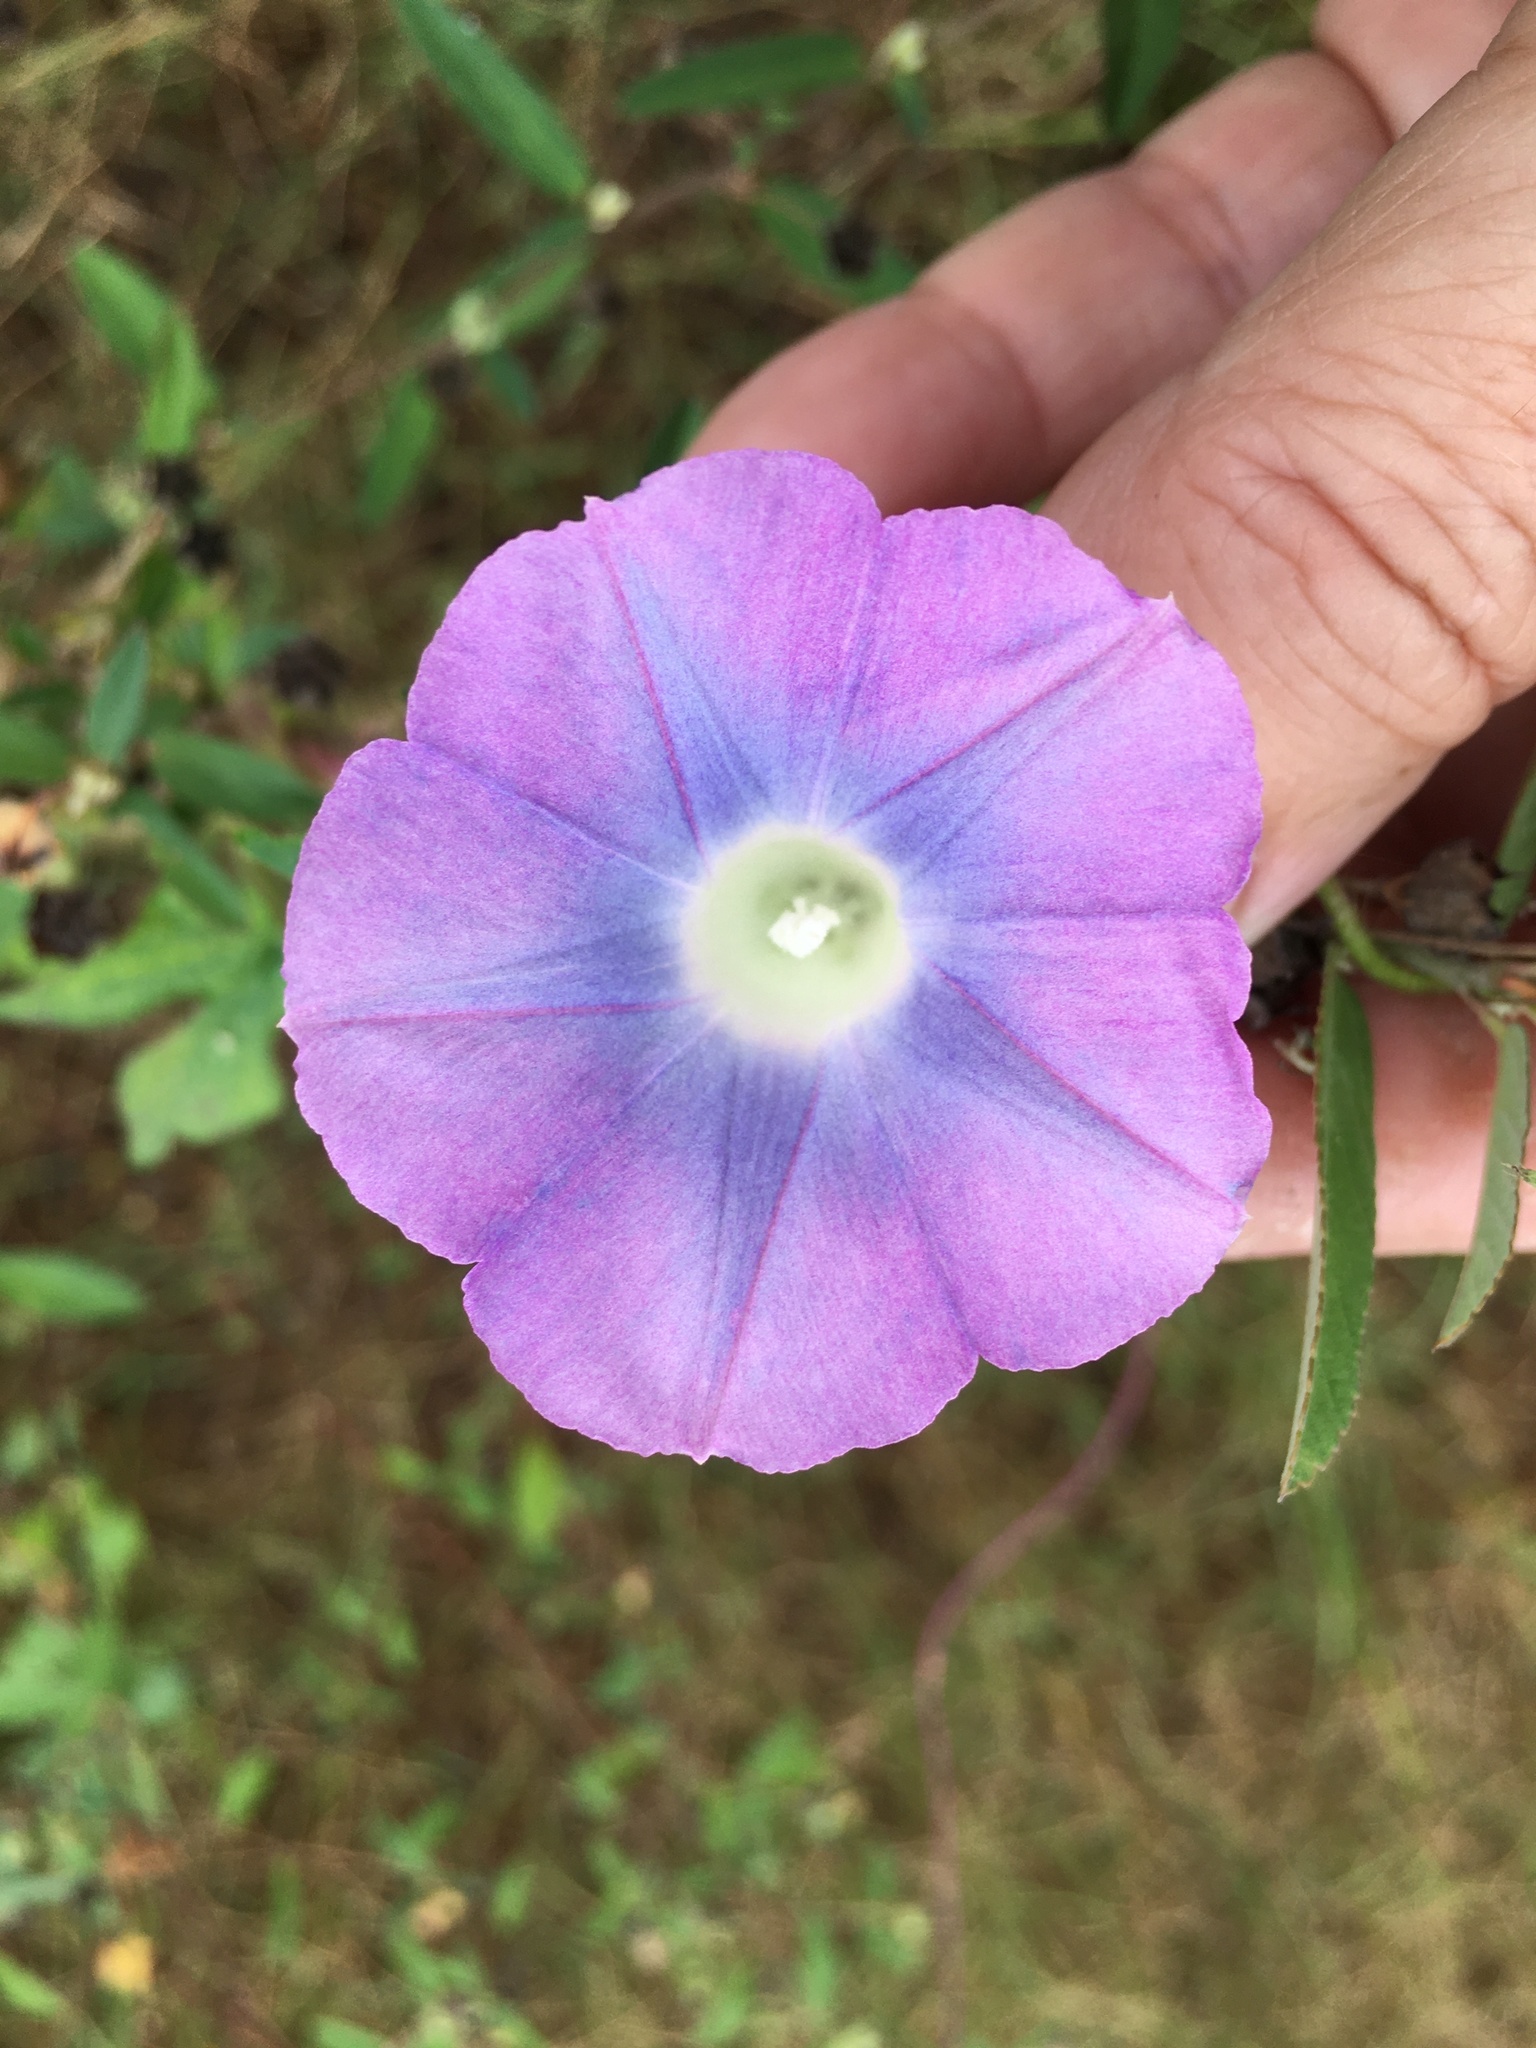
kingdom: Plantae
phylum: Tracheophyta
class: Magnoliopsida
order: Solanales
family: Convolvulaceae
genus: Ipomoea
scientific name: Ipomoea hederacea
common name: Ivy-leaved morning-glory
